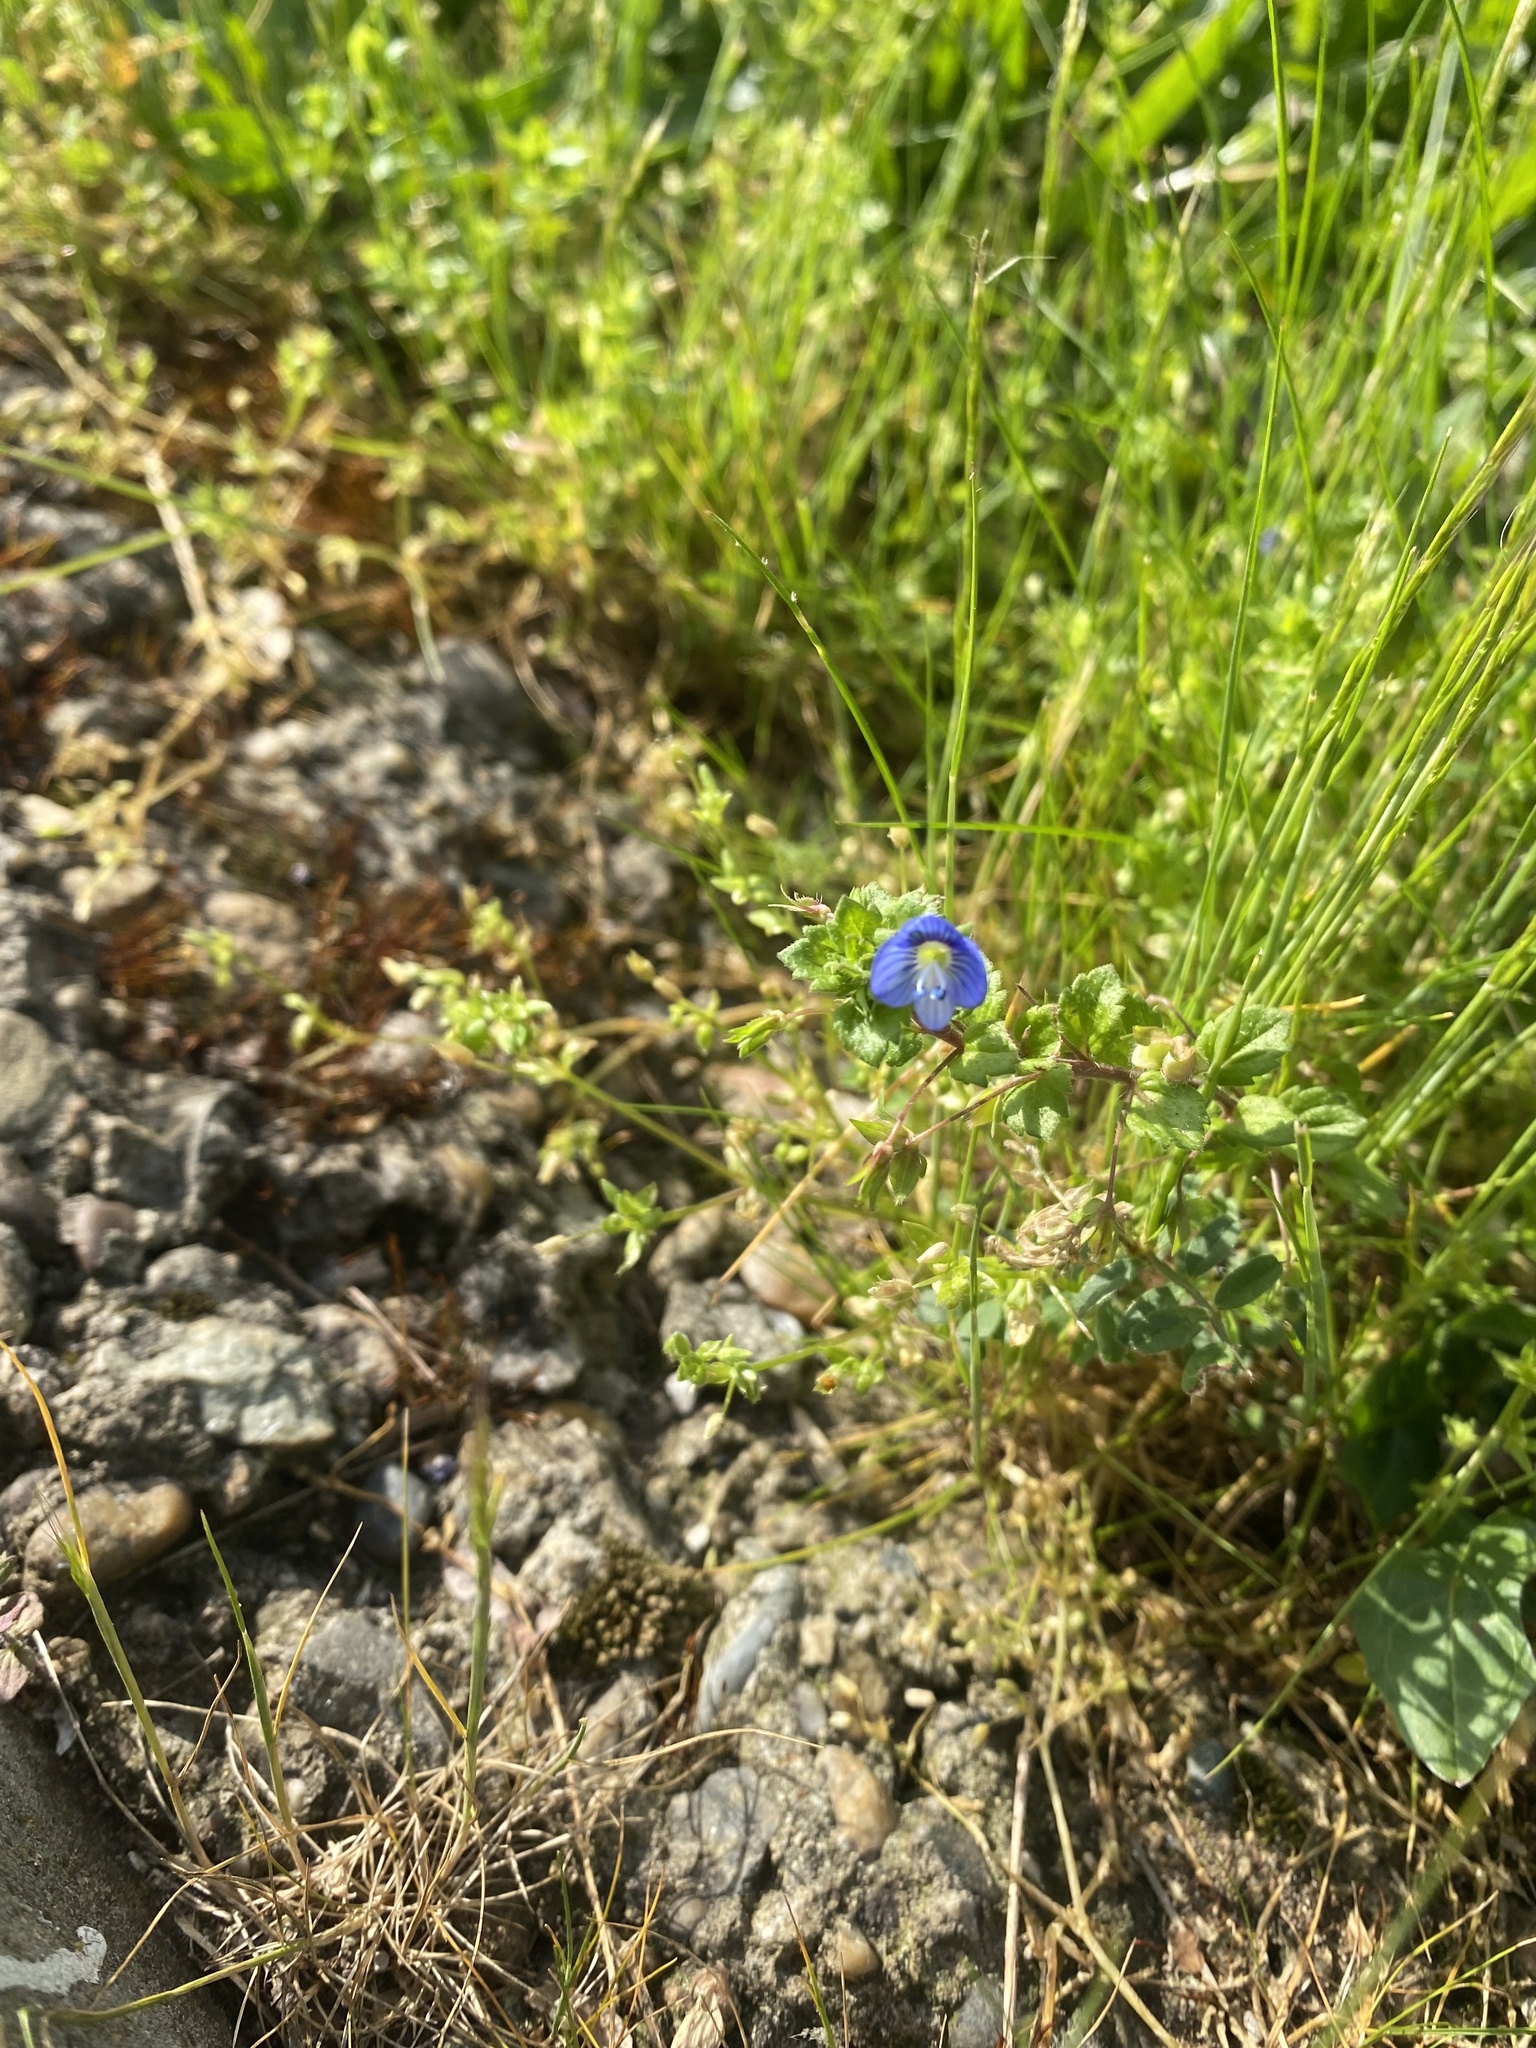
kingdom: Plantae
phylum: Tracheophyta
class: Magnoliopsida
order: Lamiales
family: Plantaginaceae
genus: Veronica
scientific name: Veronica persica
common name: Common field-speedwell
